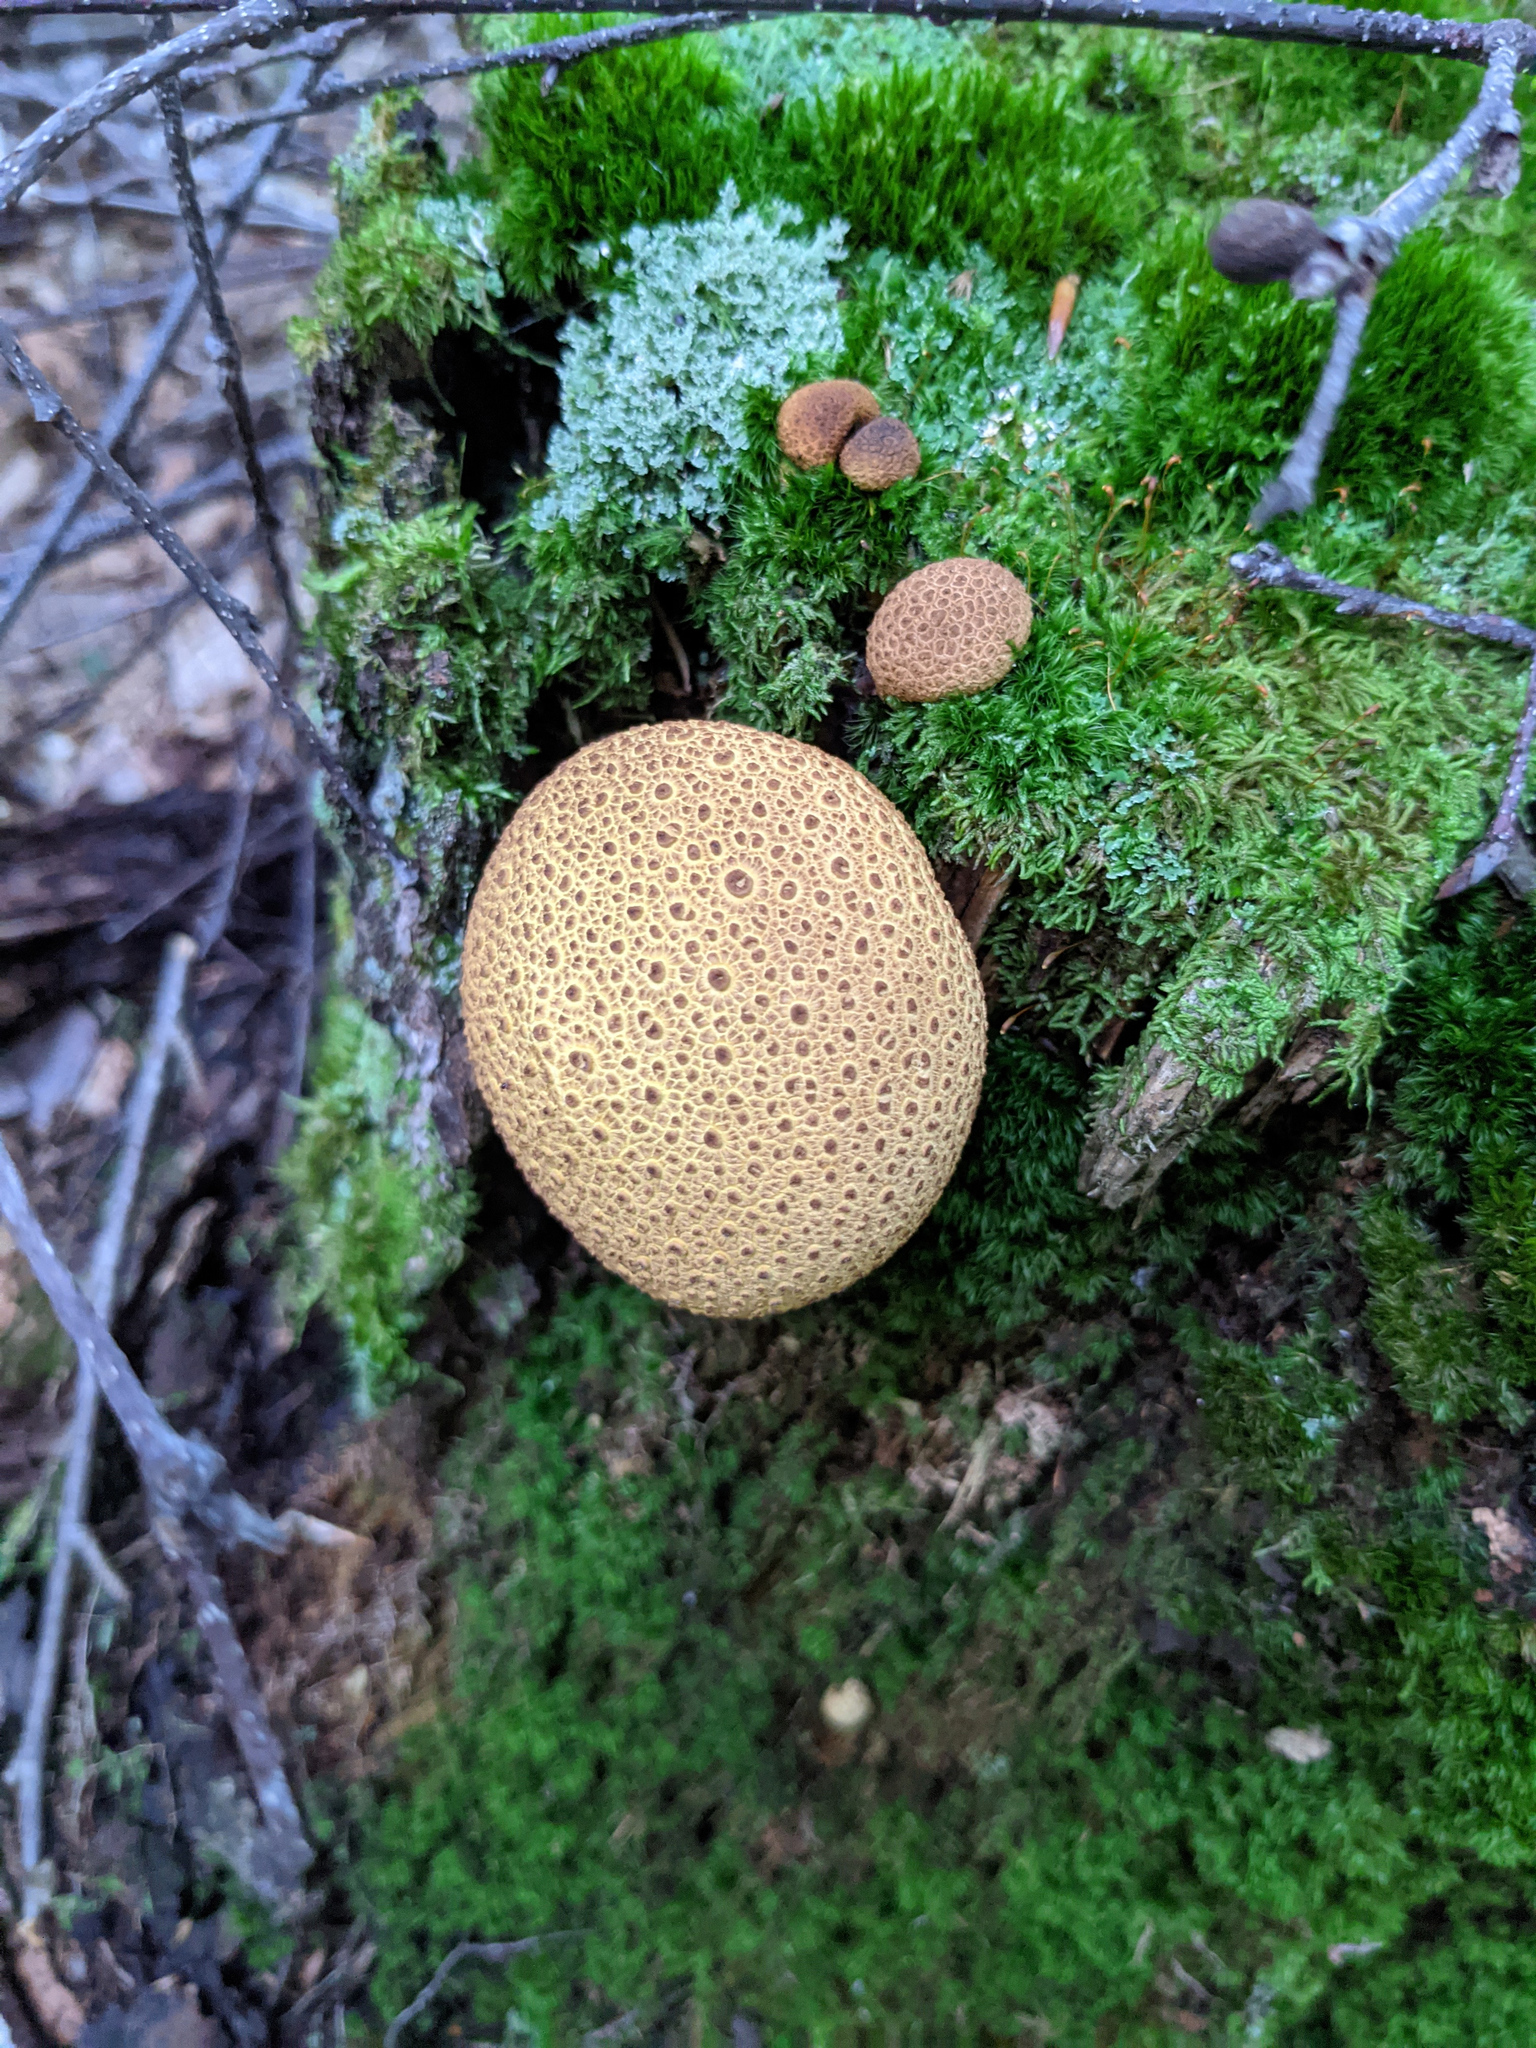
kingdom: Fungi
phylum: Basidiomycota
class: Agaricomycetes
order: Boletales
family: Sclerodermataceae
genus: Scleroderma
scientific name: Scleroderma citrinum
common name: Common earthball
